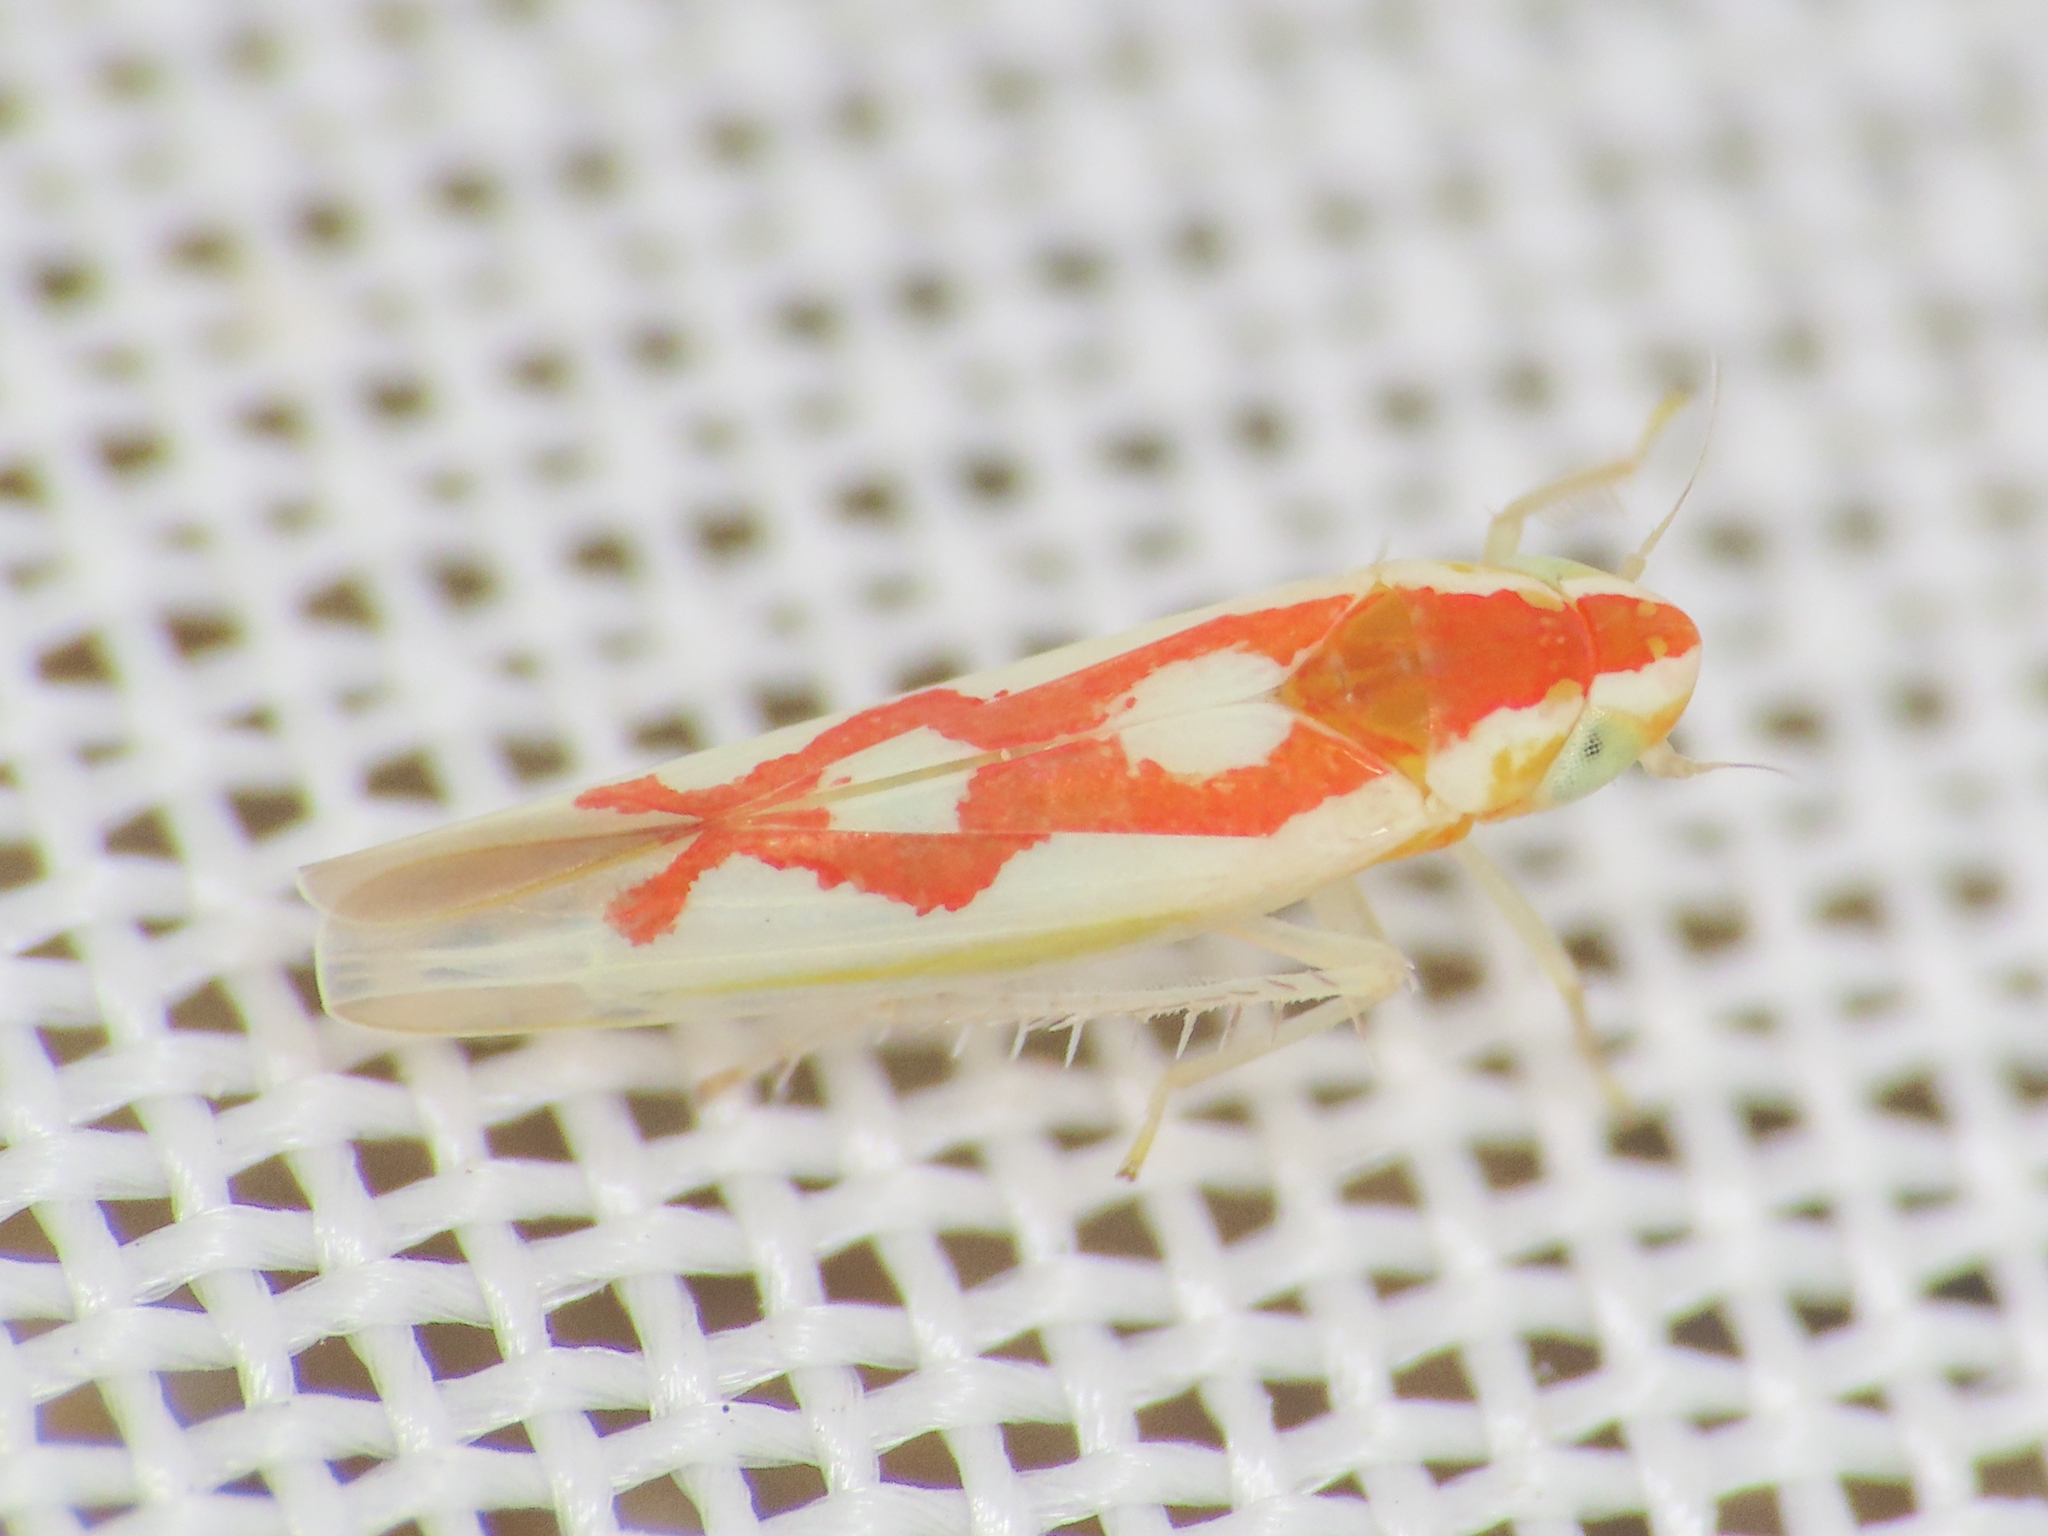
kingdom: Animalia
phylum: Arthropoda
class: Insecta
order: Hemiptera
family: Cicadellidae
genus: Zygina
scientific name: Zygina flammigera
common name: Leafhopper
